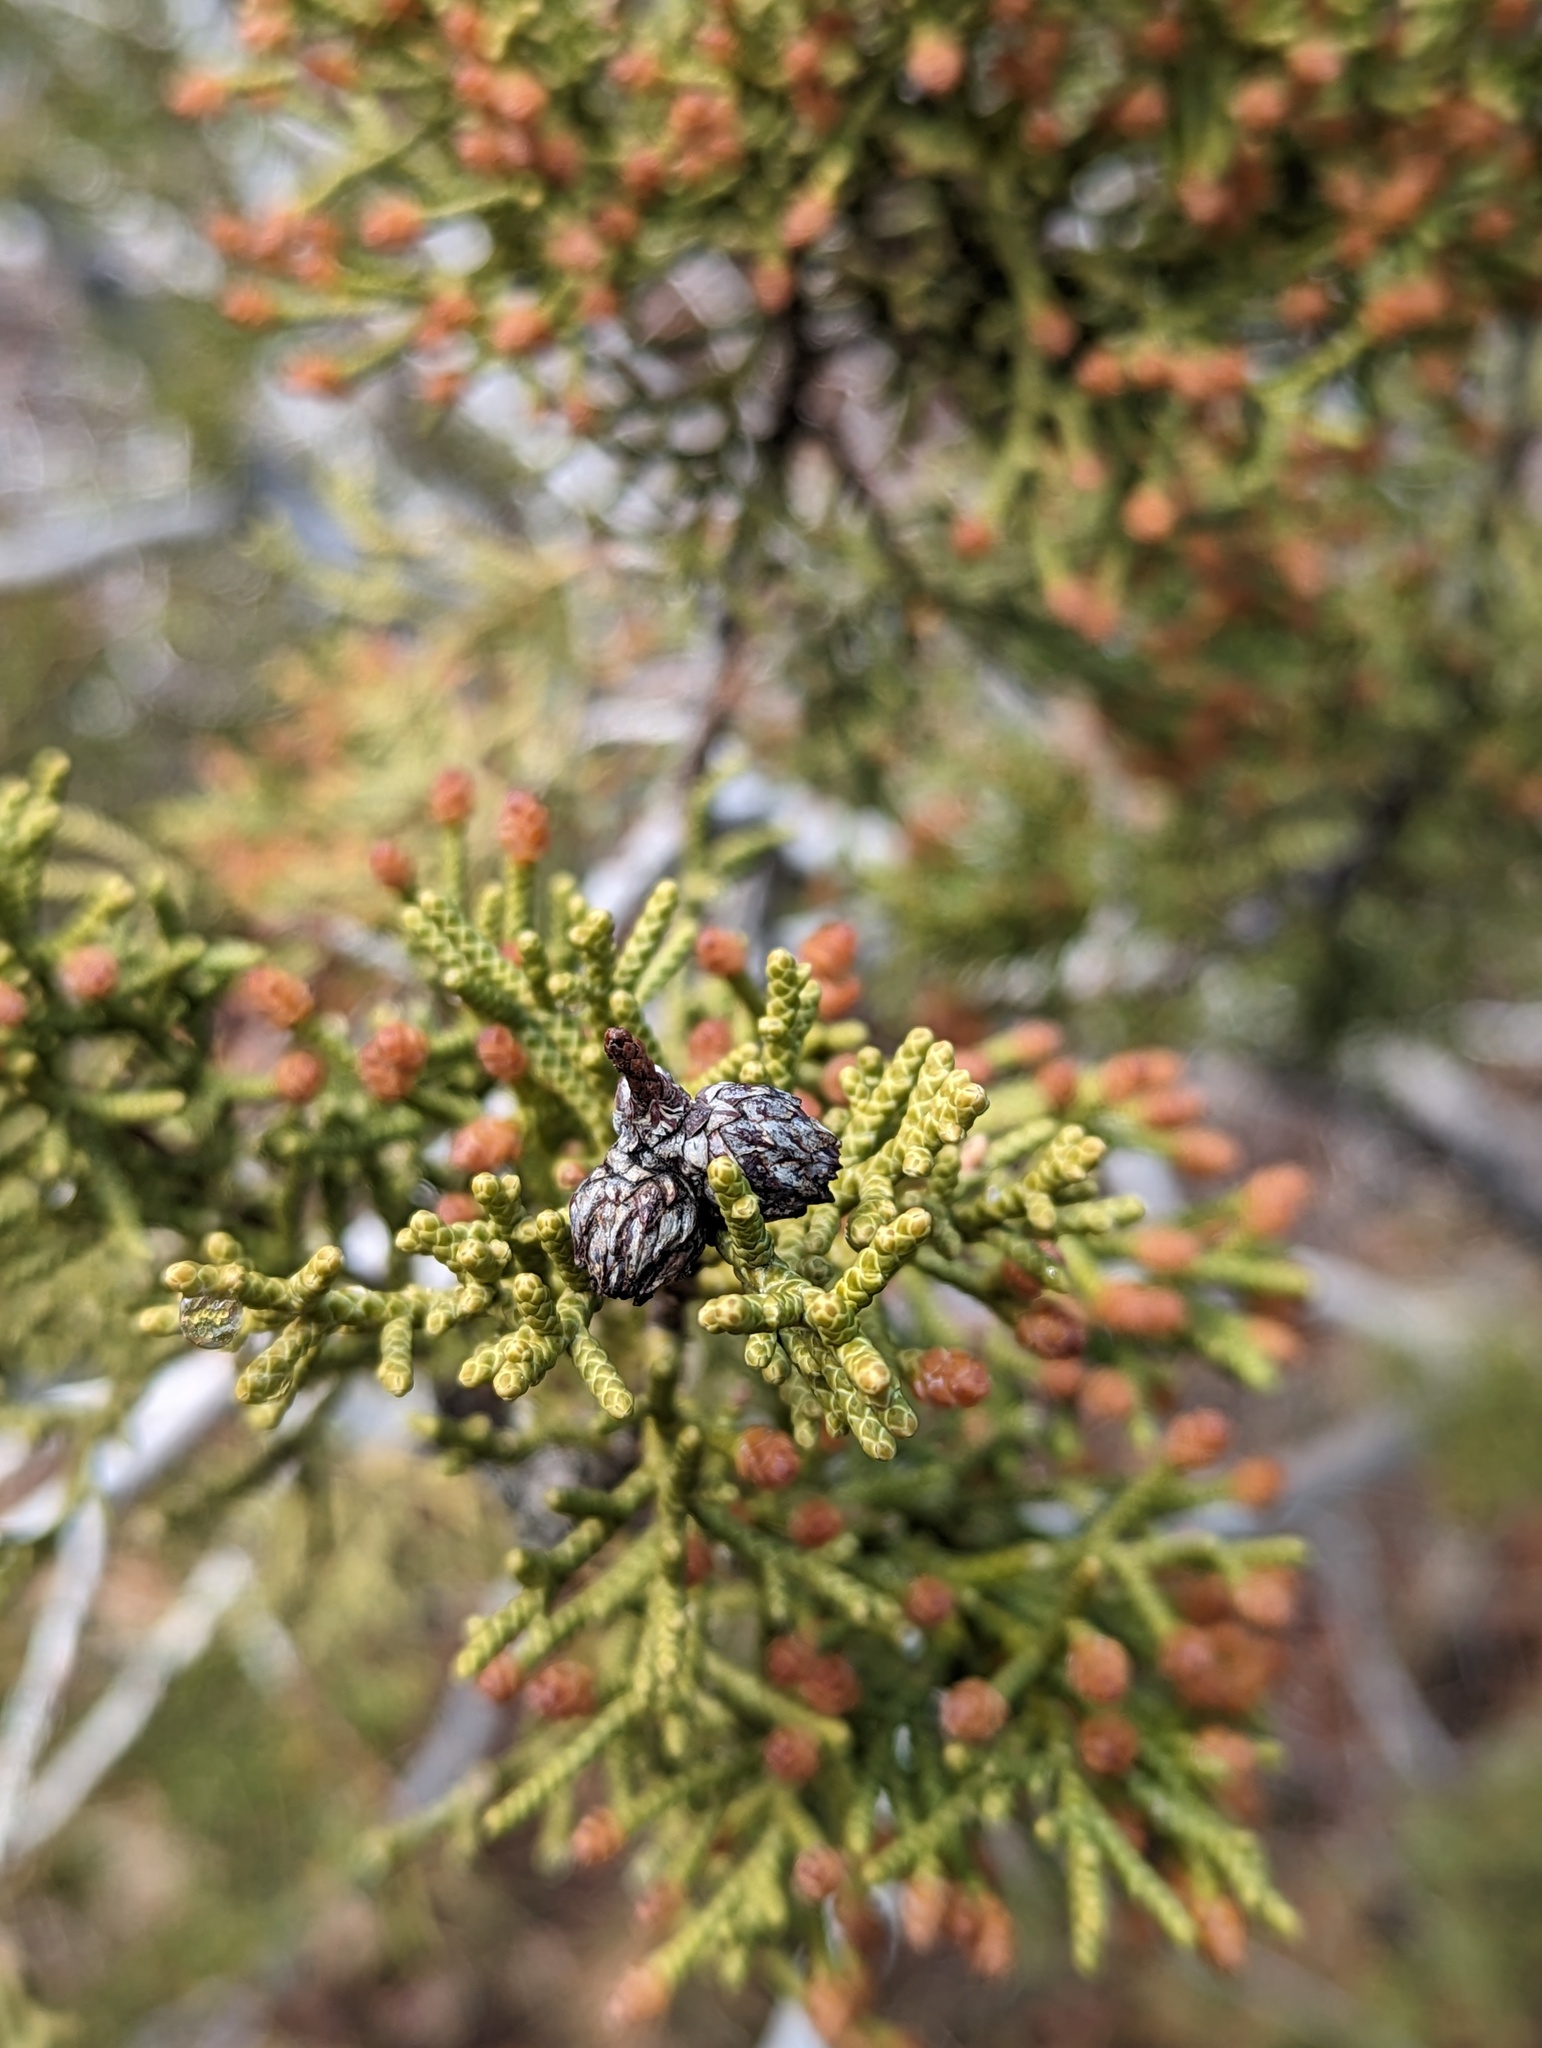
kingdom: Plantae
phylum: Tracheophyta
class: Pinopsida
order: Pinales
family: Cupressaceae
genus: Juniperus
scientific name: Juniperus californica
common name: California juniper
